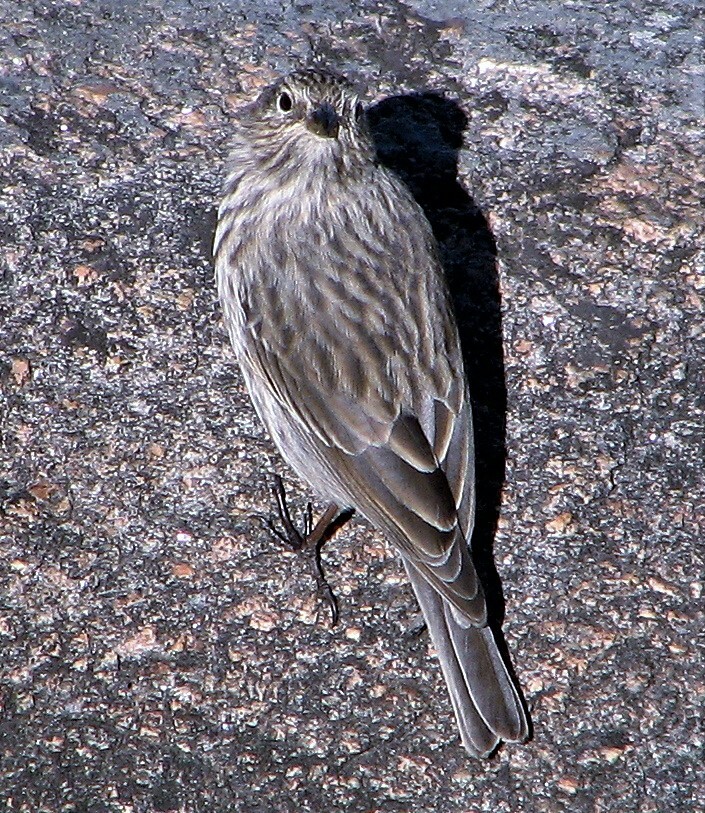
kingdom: Animalia
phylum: Chordata
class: Aves
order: Passeriformes
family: Thraupidae
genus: Geospizopsis
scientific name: Geospizopsis unicolor
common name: Plumbeous sierra-finch
